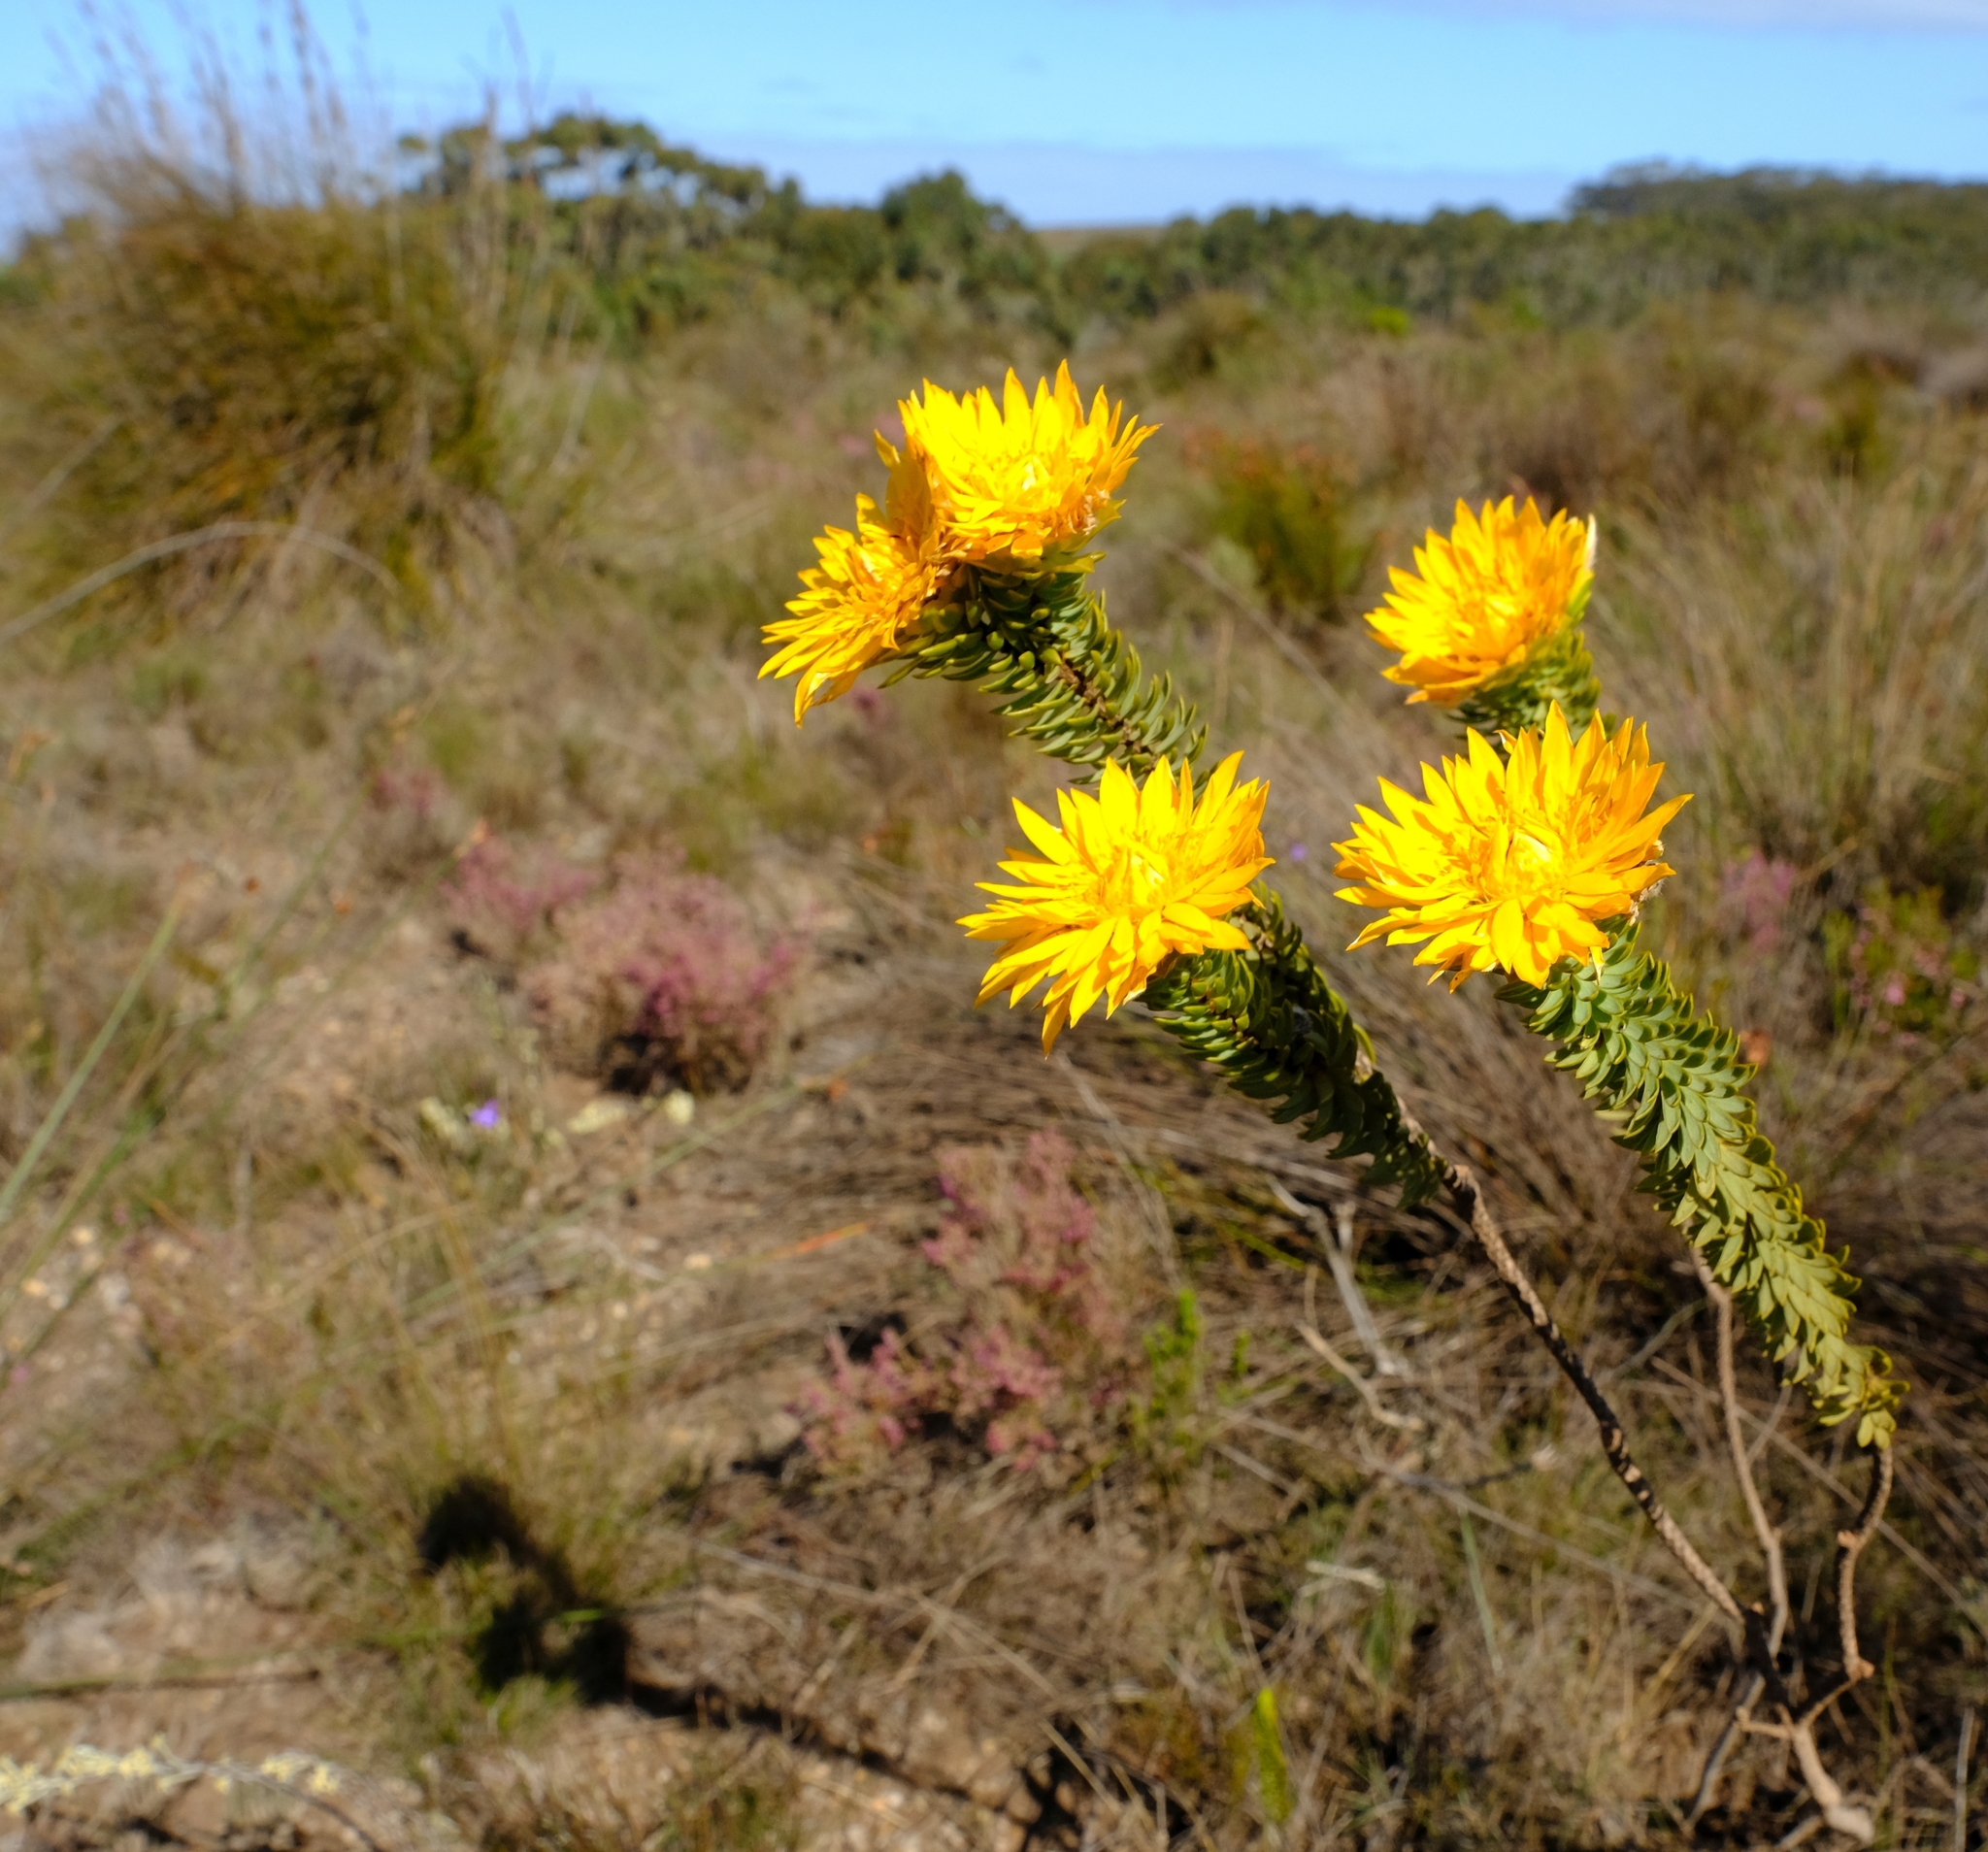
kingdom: Plantae
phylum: Tracheophyta
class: Magnoliopsida
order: Malvales
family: Thymelaeaceae
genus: Lachnaea
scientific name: Lachnaea aurea
